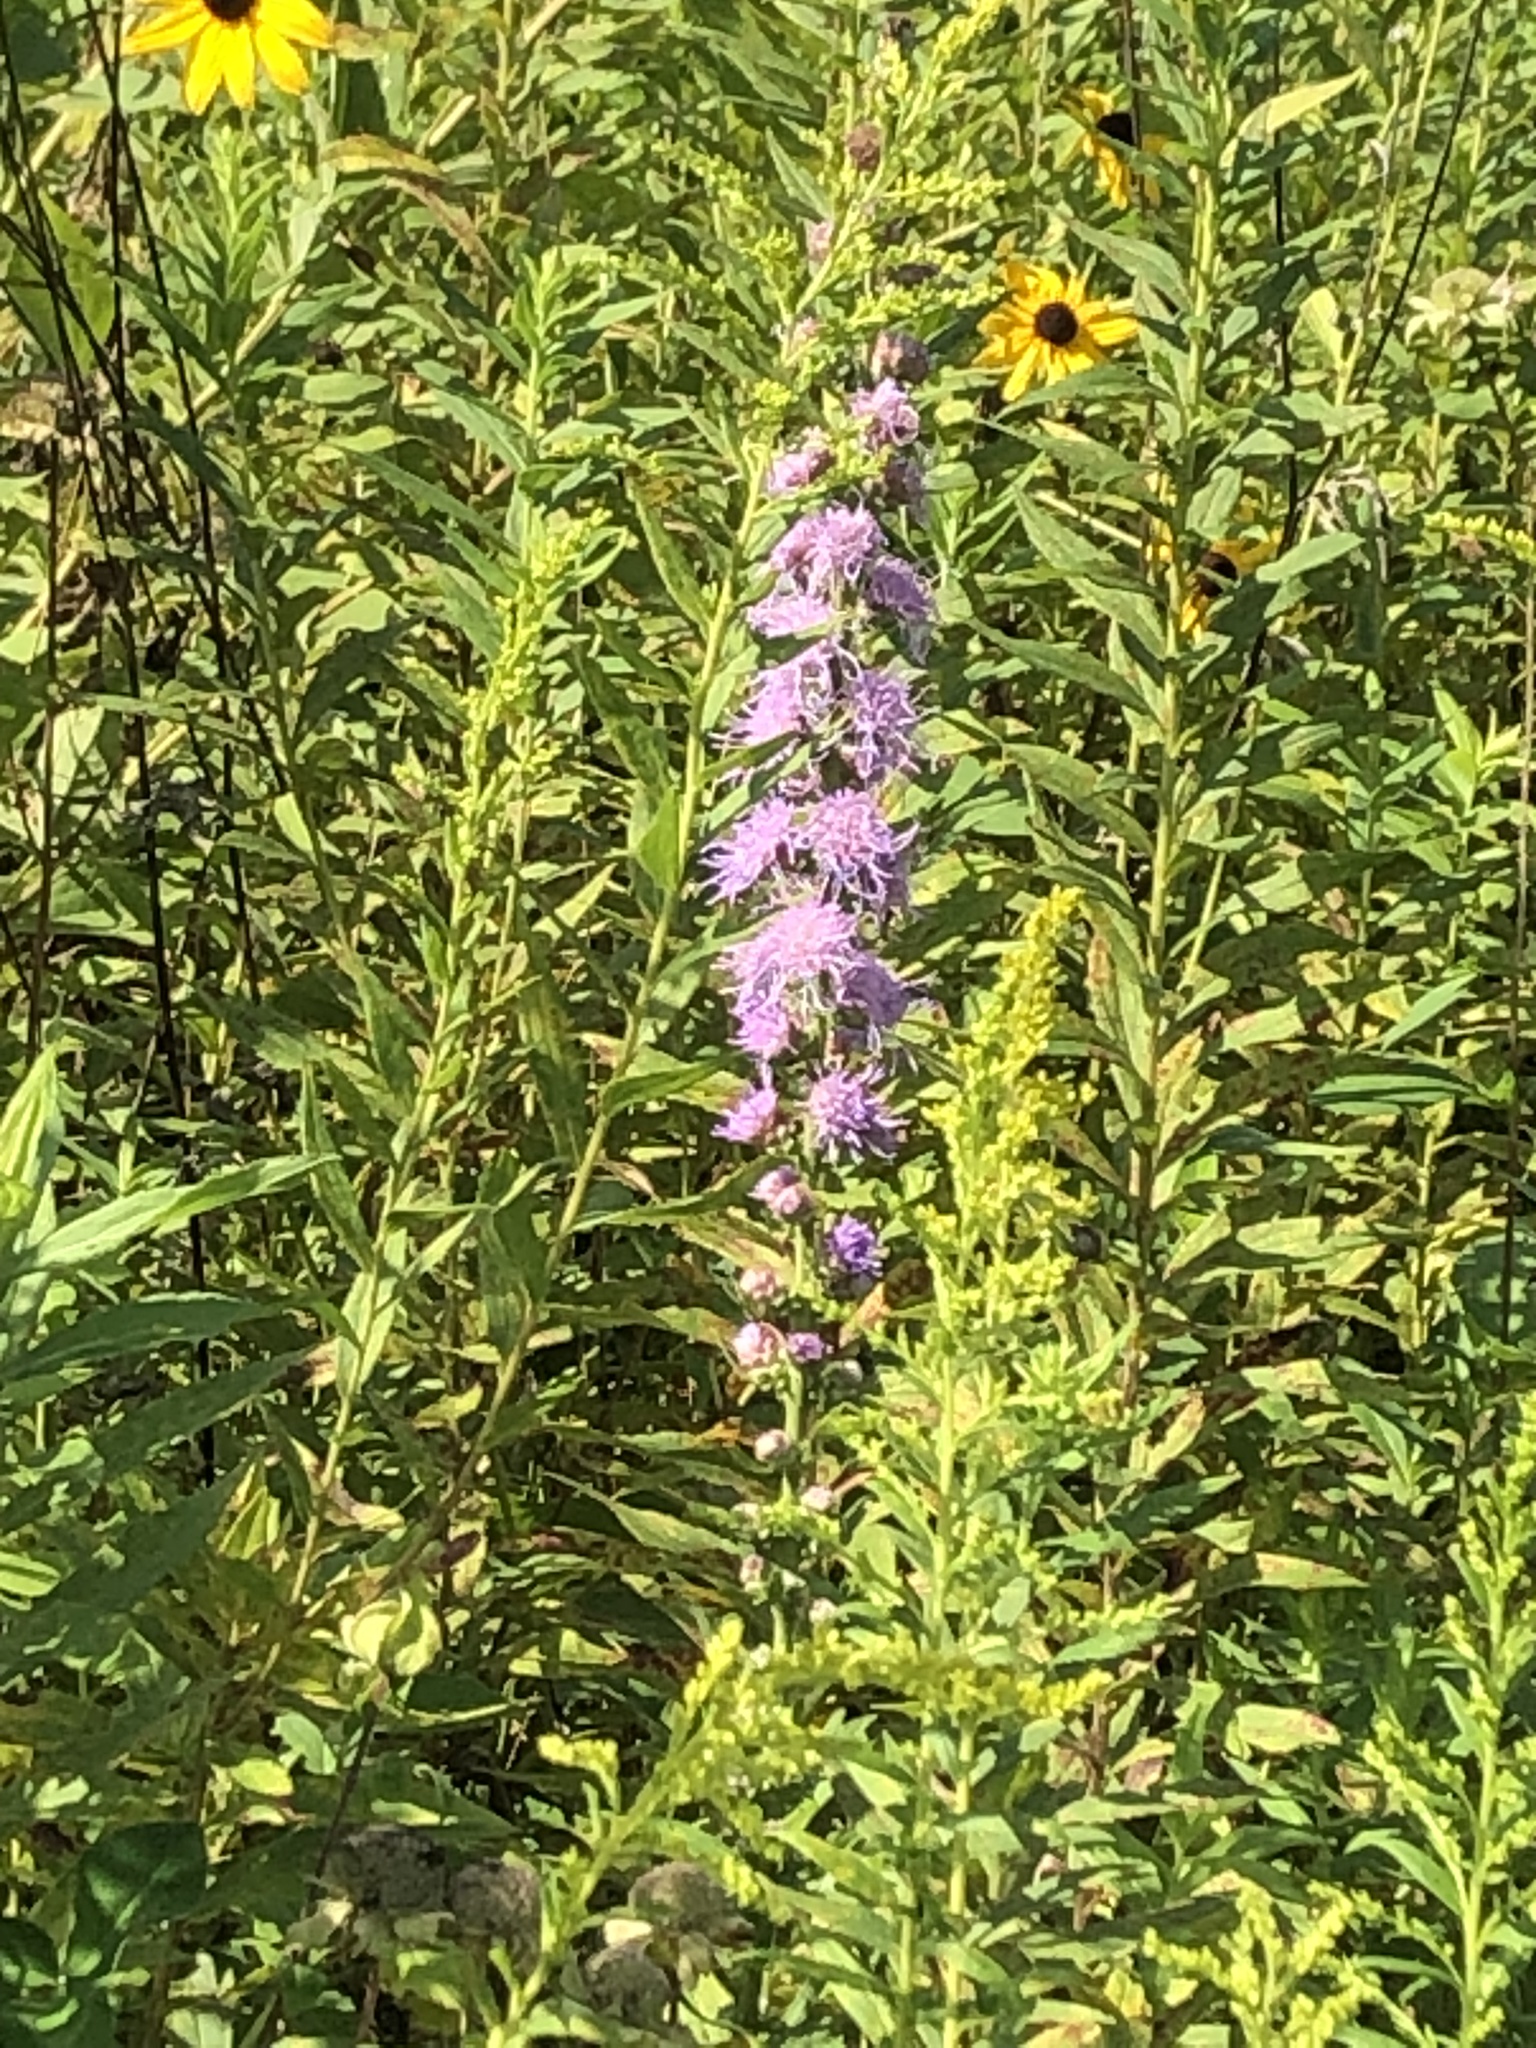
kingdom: Plantae
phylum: Tracheophyta
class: Magnoliopsida
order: Asterales
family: Asteraceae
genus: Liatris
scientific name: Liatris aspera
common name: Lacerate blazing-star
